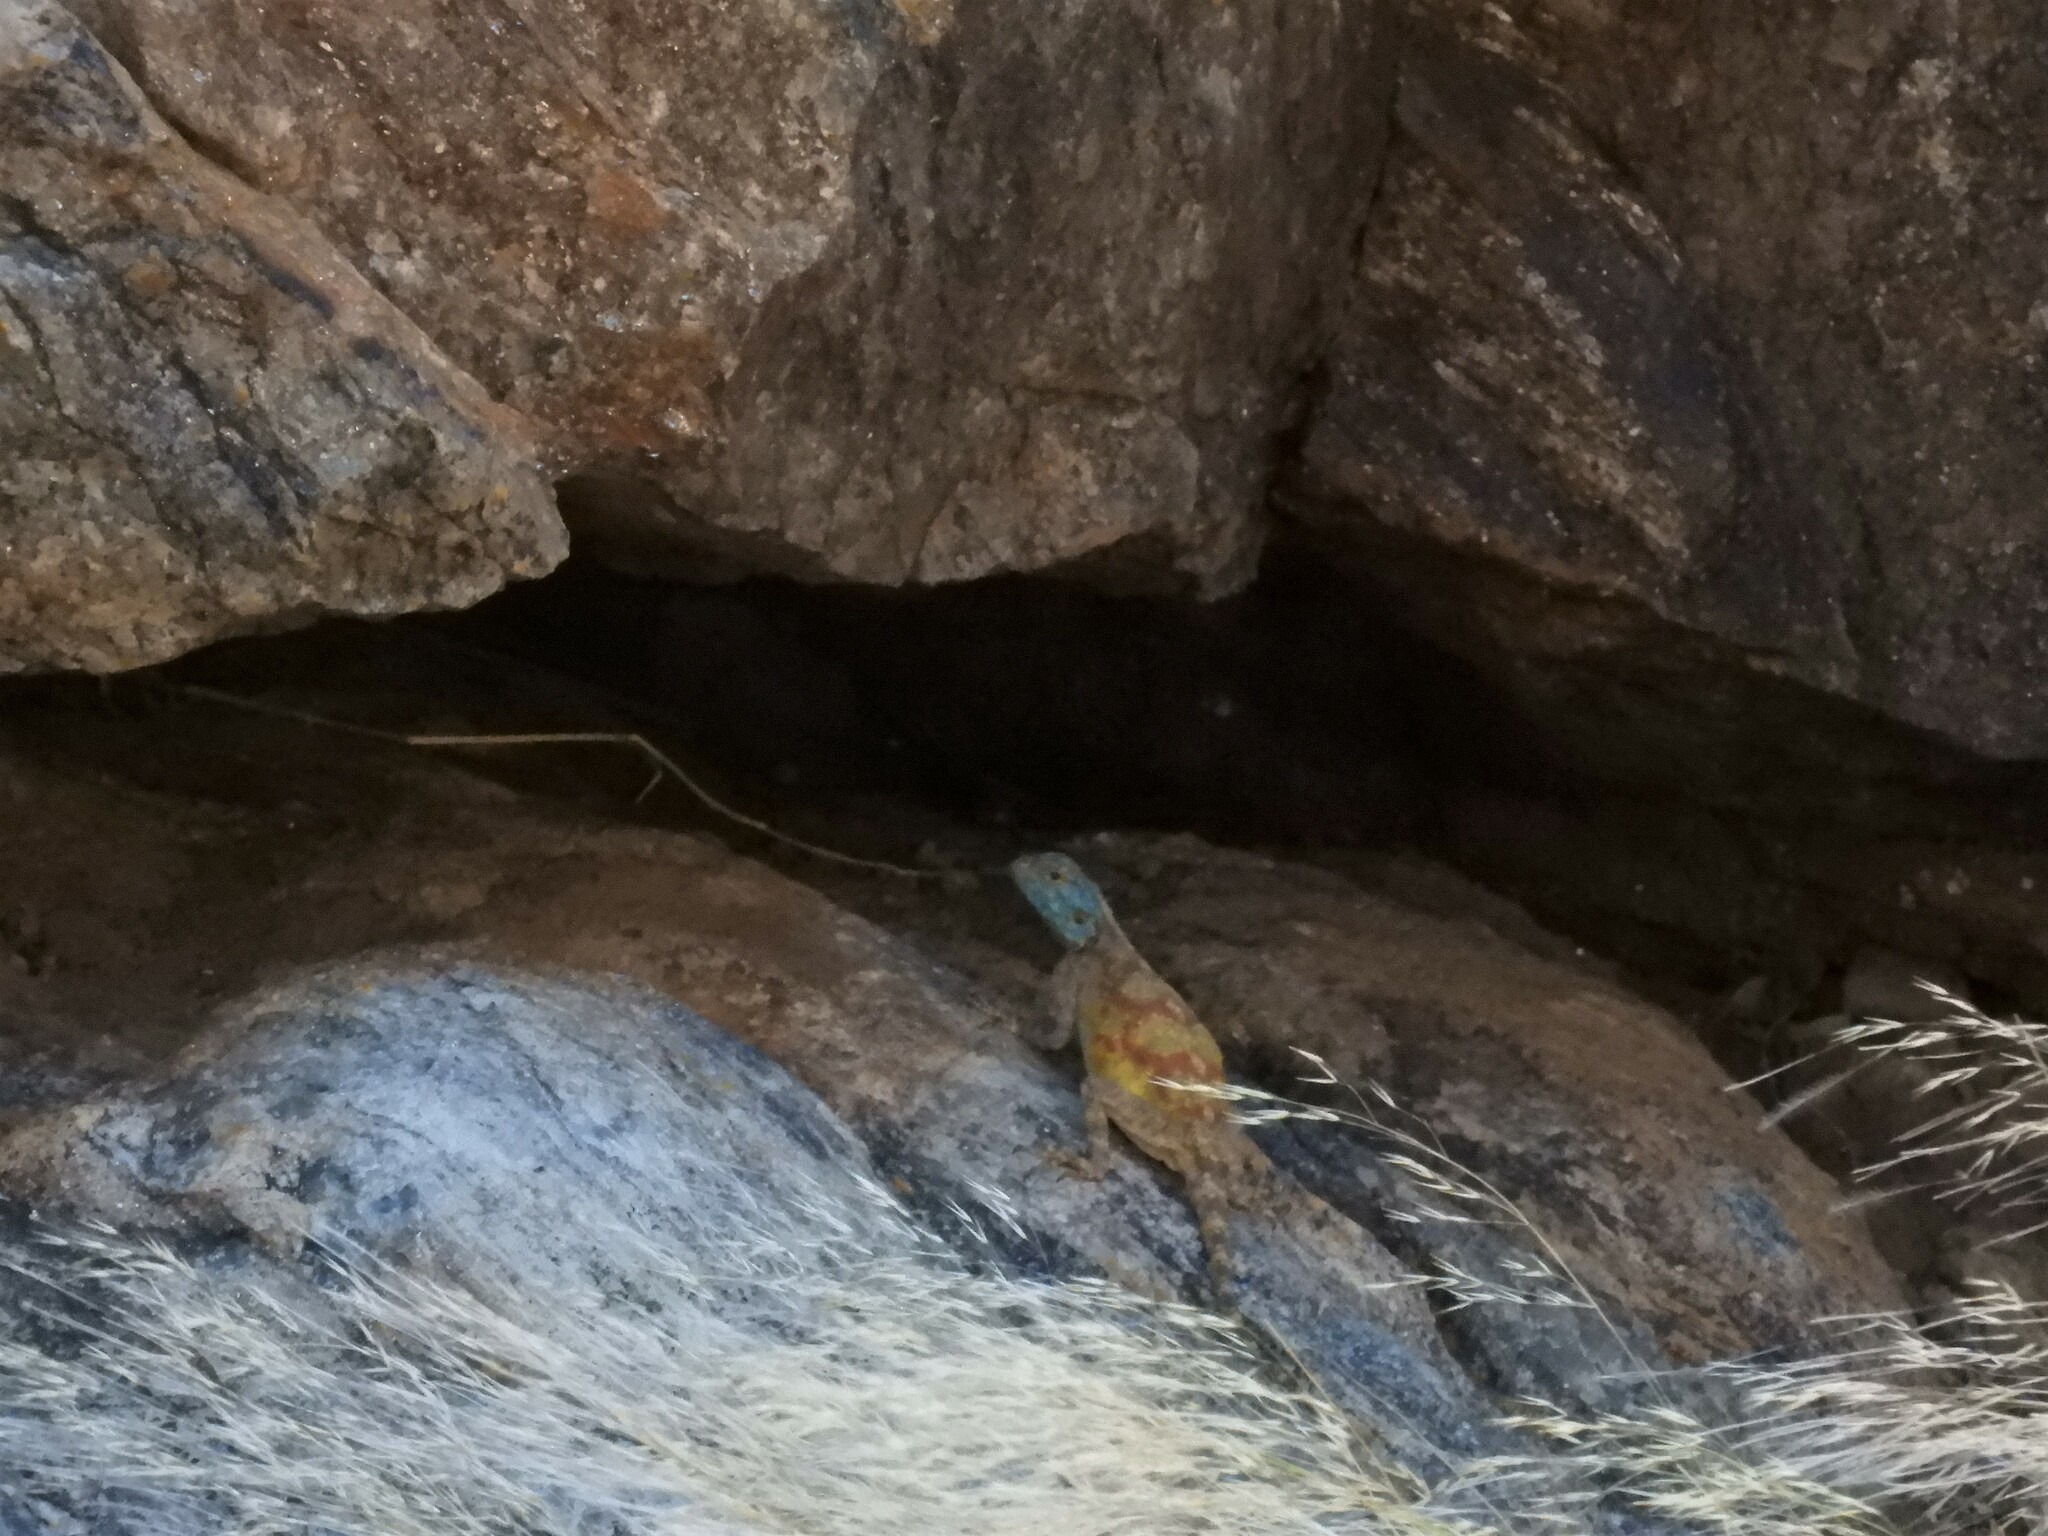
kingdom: Animalia
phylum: Chordata
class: Squamata
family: Agamidae
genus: Agama
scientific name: Agama atra
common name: Southern african rock agama
